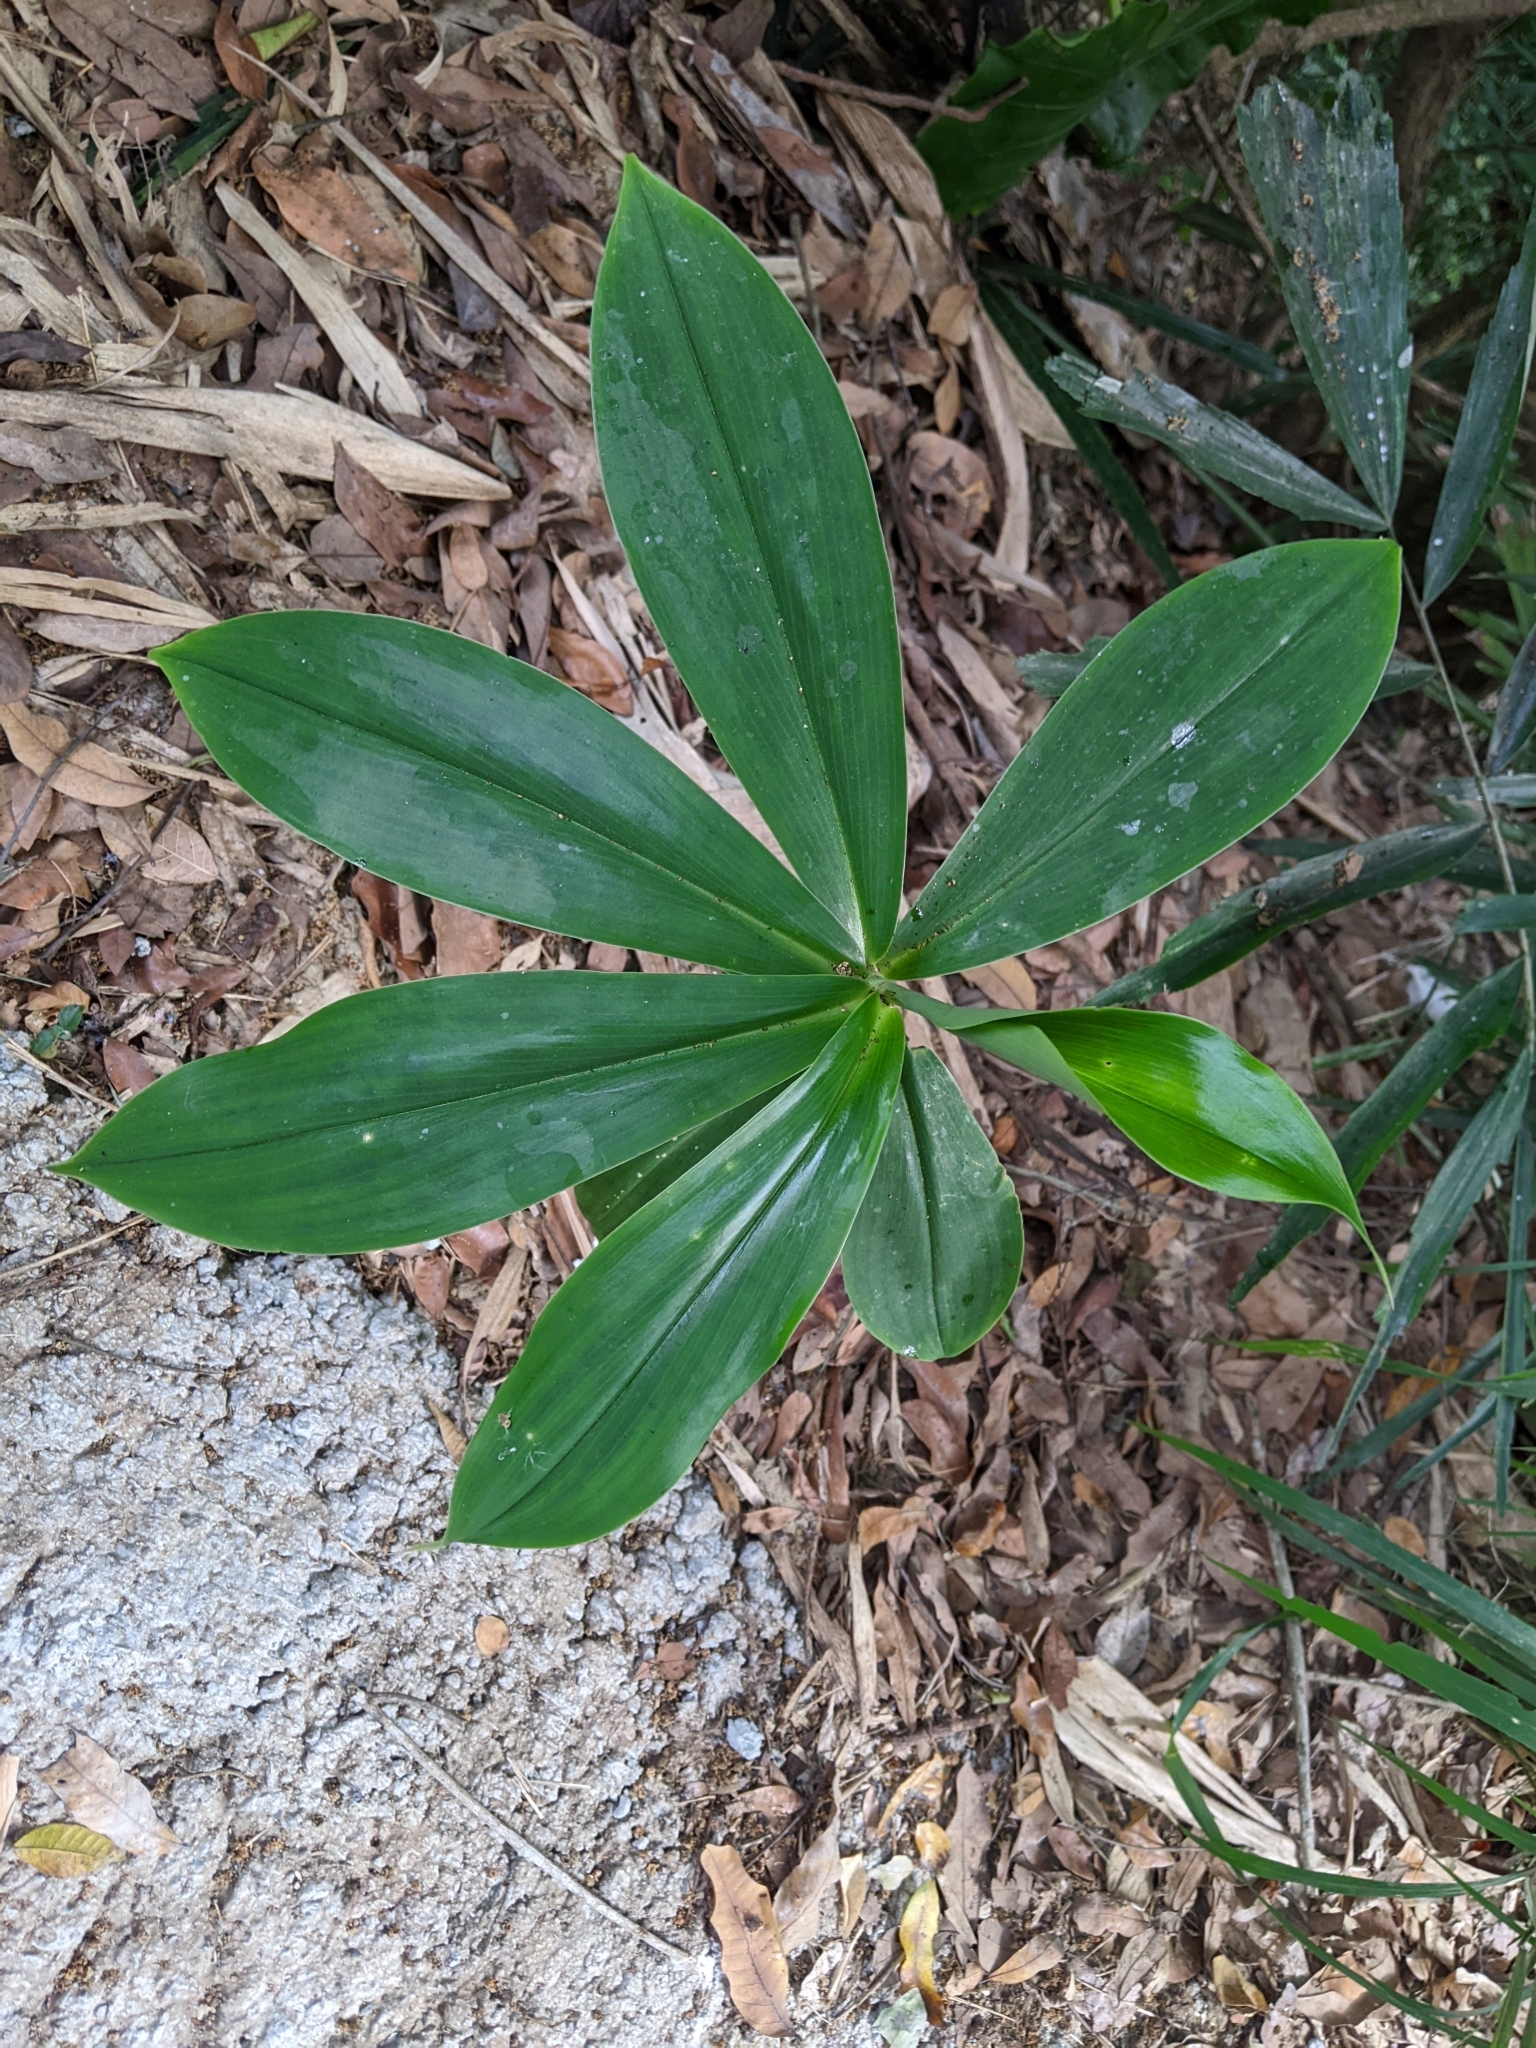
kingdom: Plantae
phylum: Tracheophyta
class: Liliopsida
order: Zingiberales
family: Costaceae
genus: Hellenia
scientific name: Hellenia speciosa
